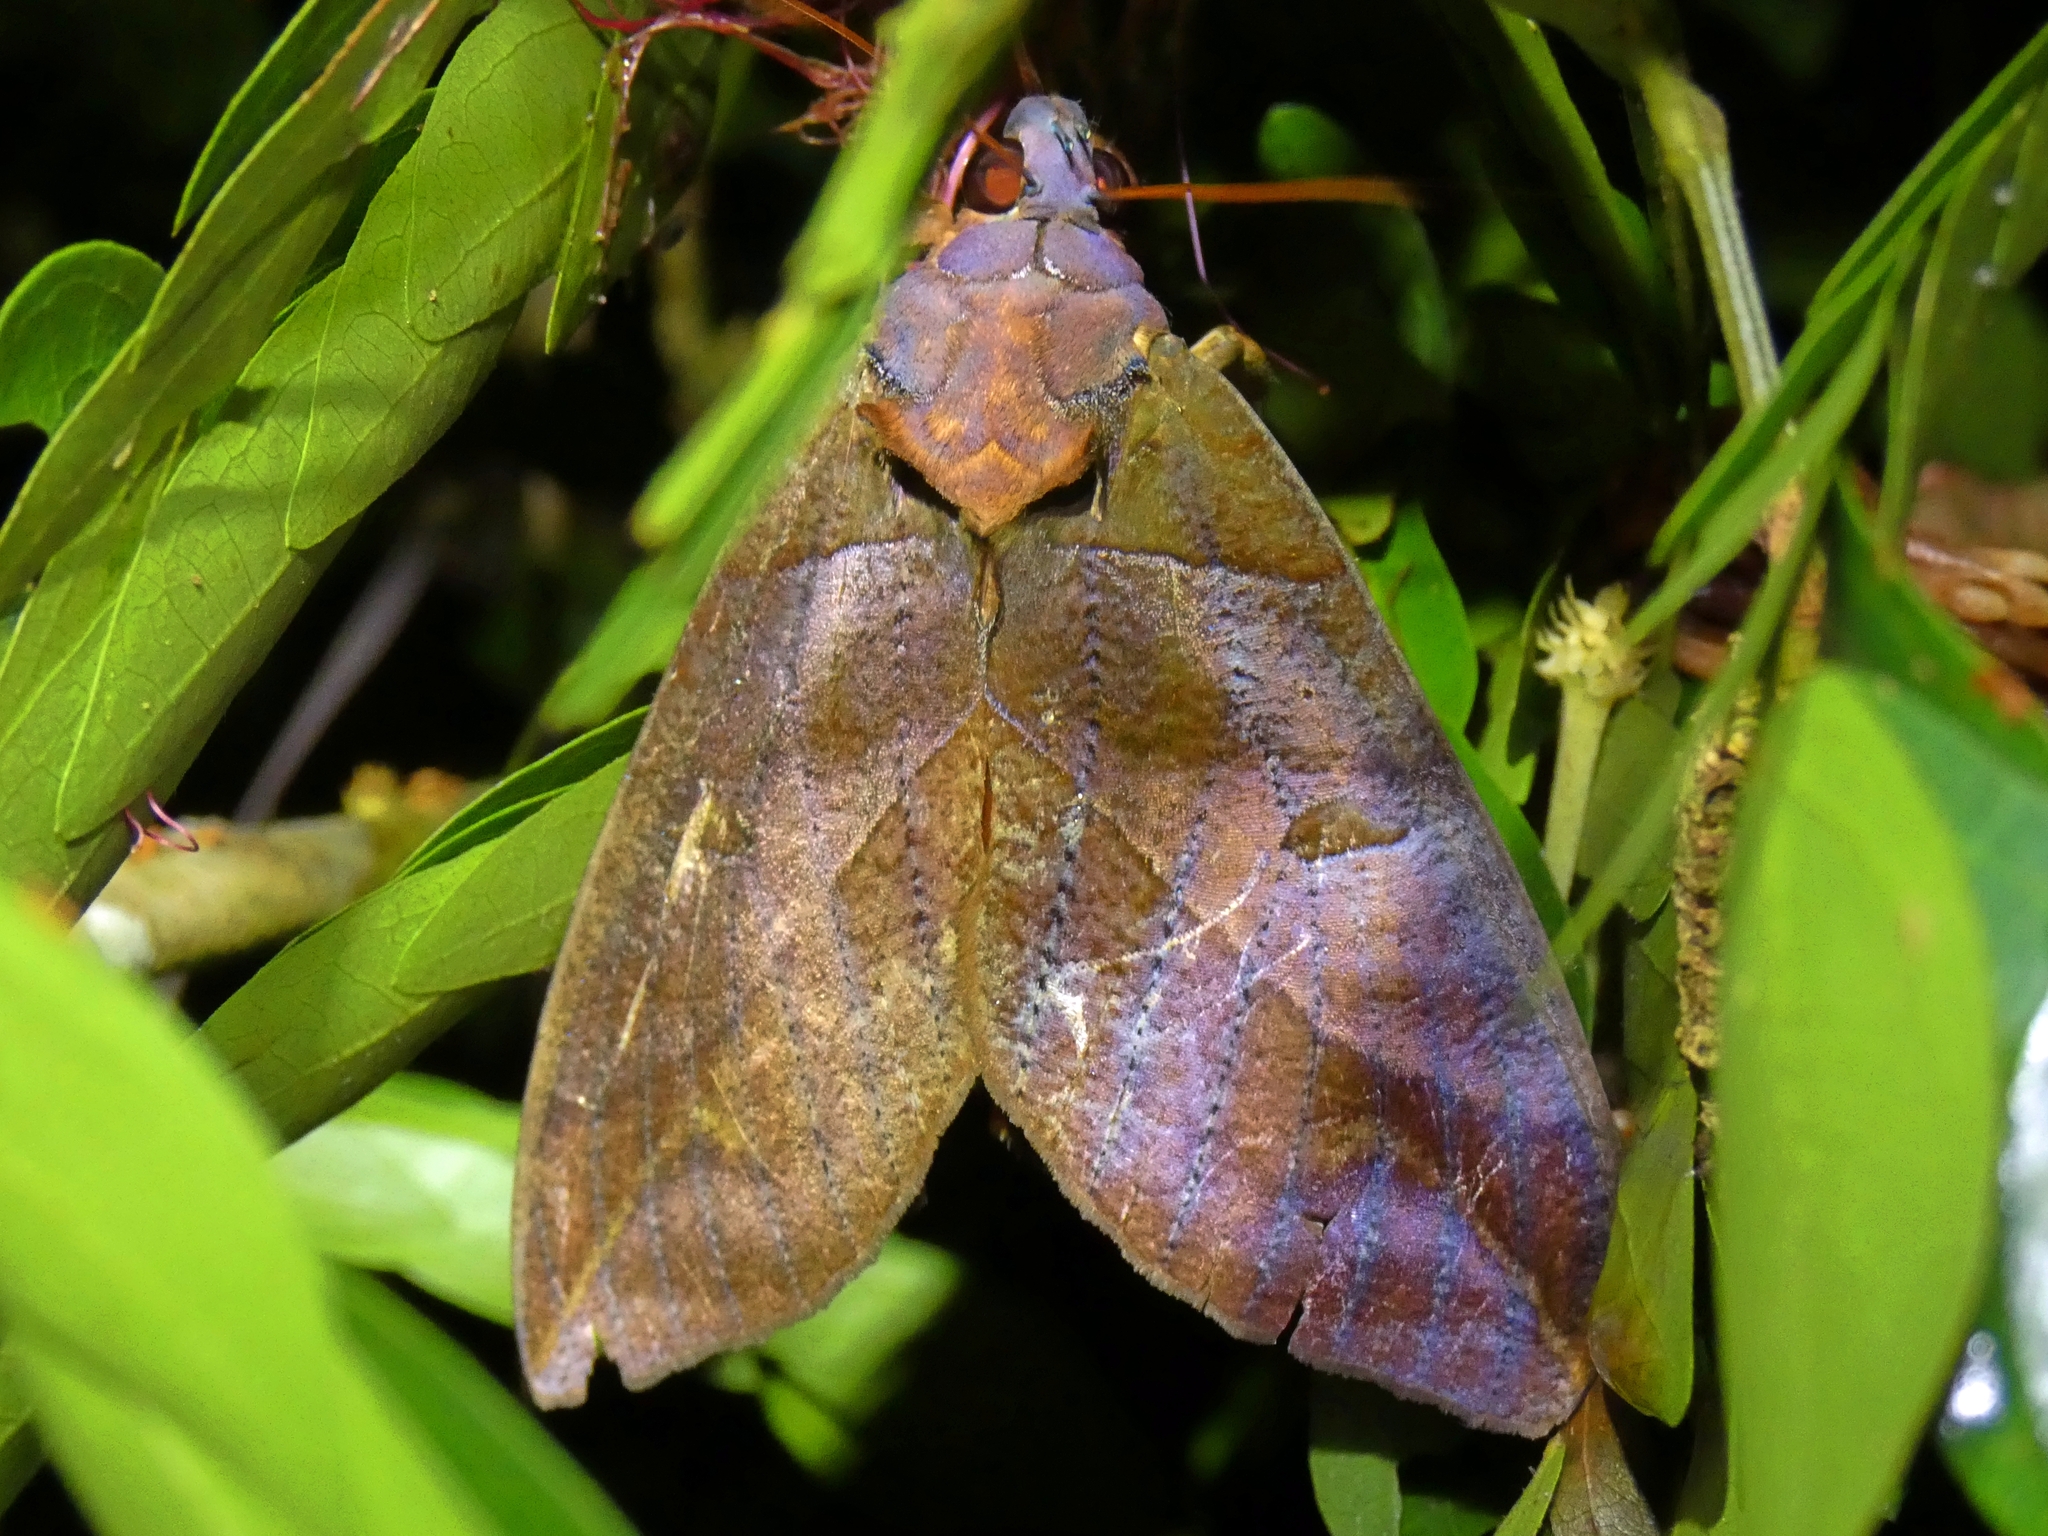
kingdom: Animalia
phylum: Arthropoda
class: Insecta
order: Lepidoptera
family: Erebidae
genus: Eudocima
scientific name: Eudocima phalonia
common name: Wasp
